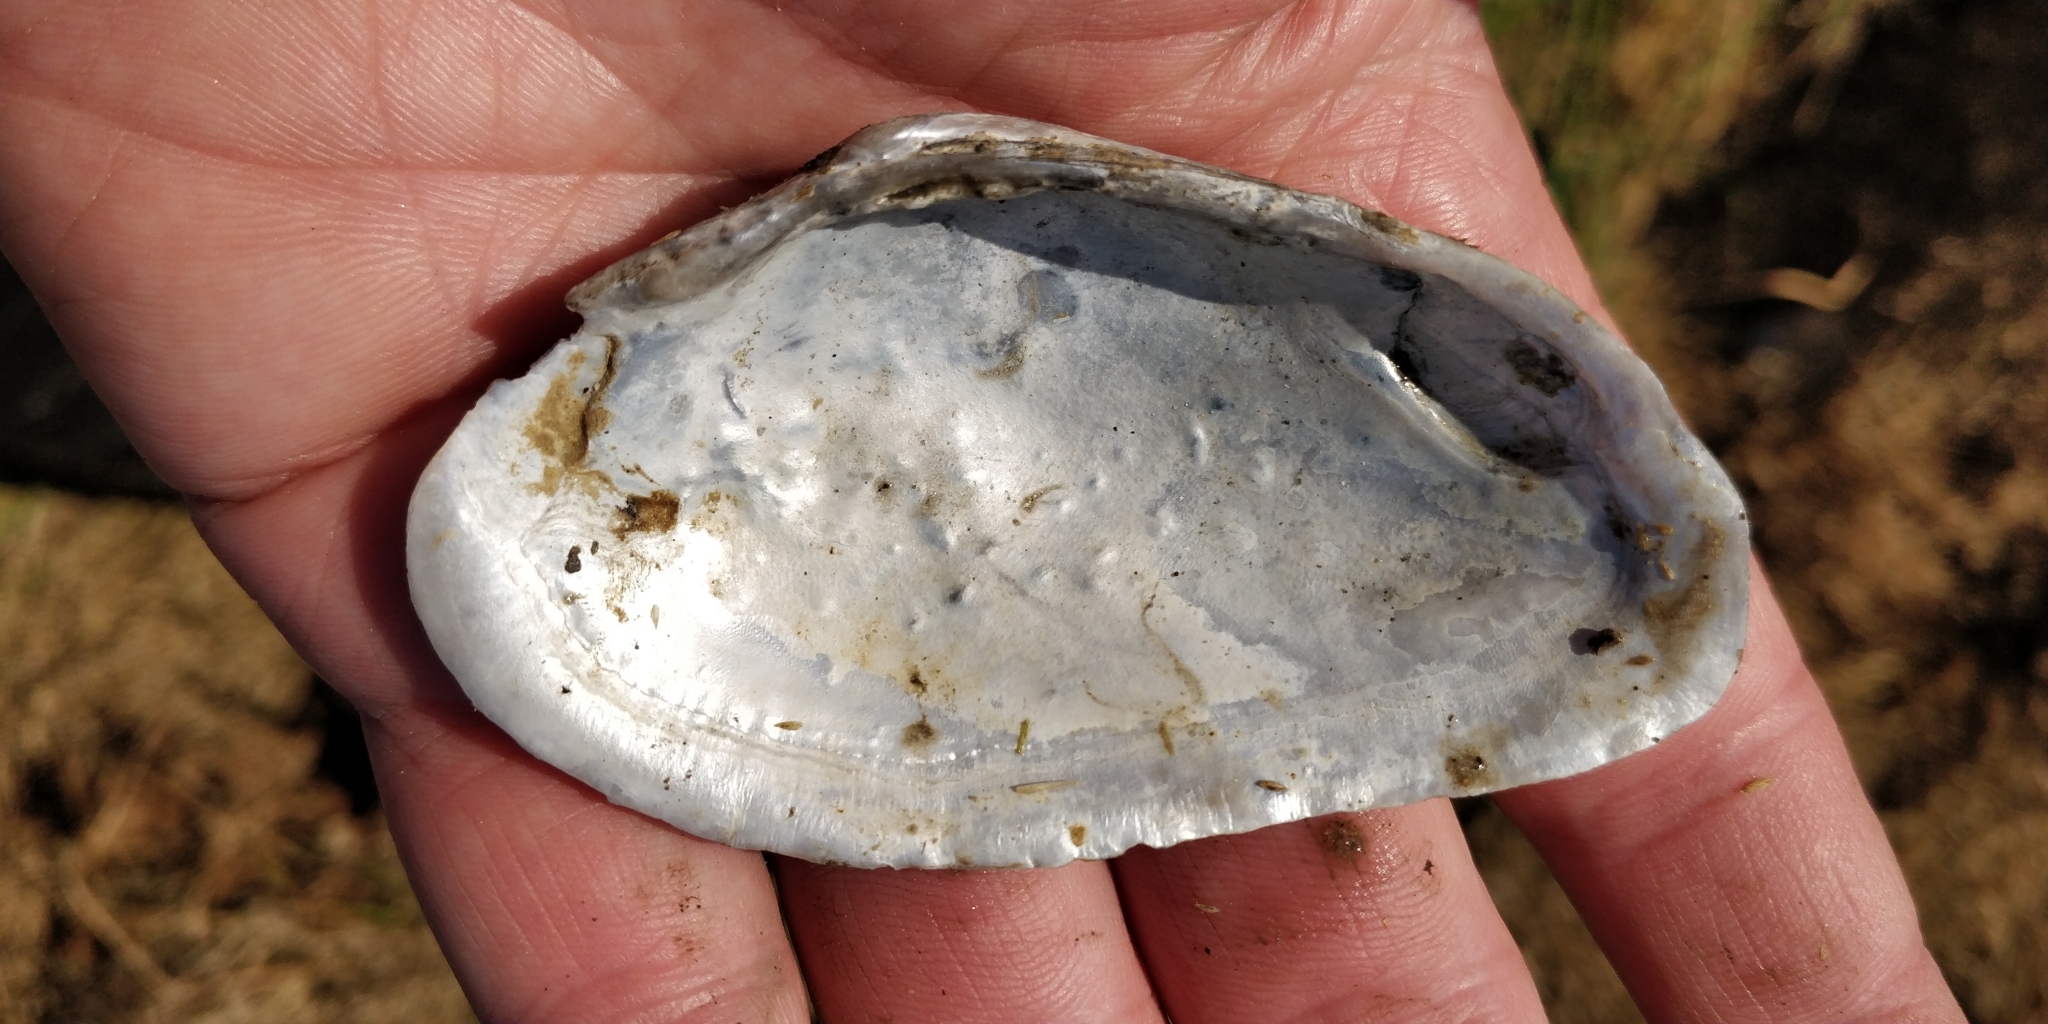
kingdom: Animalia
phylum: Mollusca
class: Bivalvia
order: Unionida
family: Unionidae
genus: Strophitus
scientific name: Strophitus undulatus
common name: Creeper
